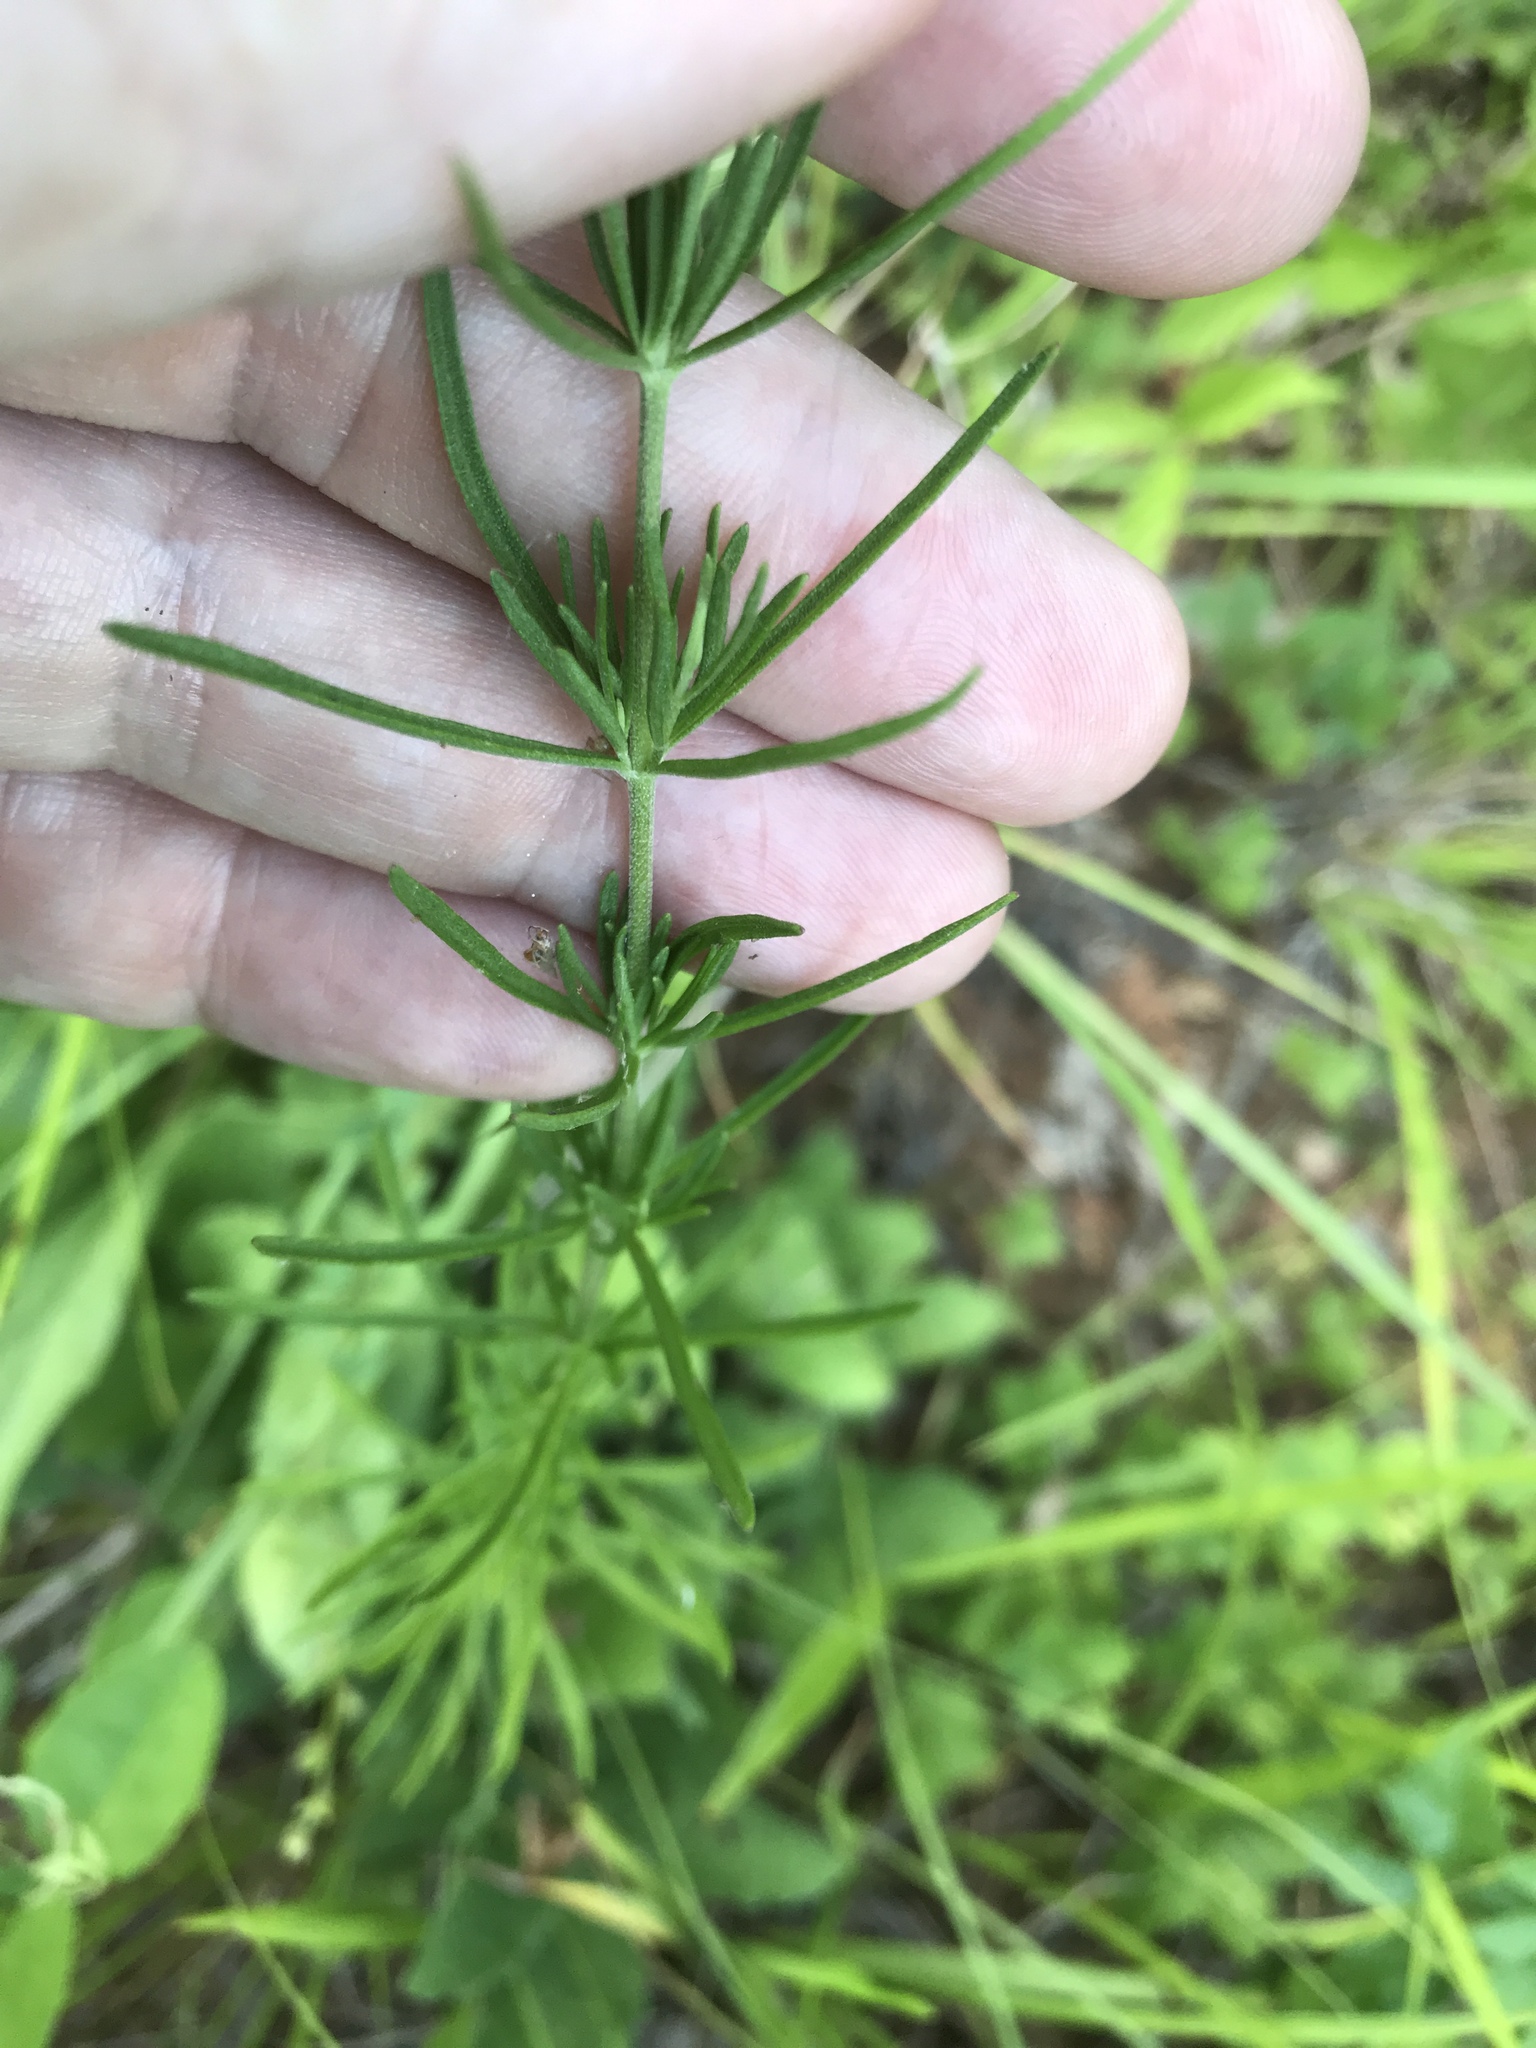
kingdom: Plantae
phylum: Tracheophyta
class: Magnoliopsida
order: Asterales
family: Asteraceae
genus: Eupatorium
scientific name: Eupatorium hyssopifolium
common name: Hyssop-leaf thoroughwort
